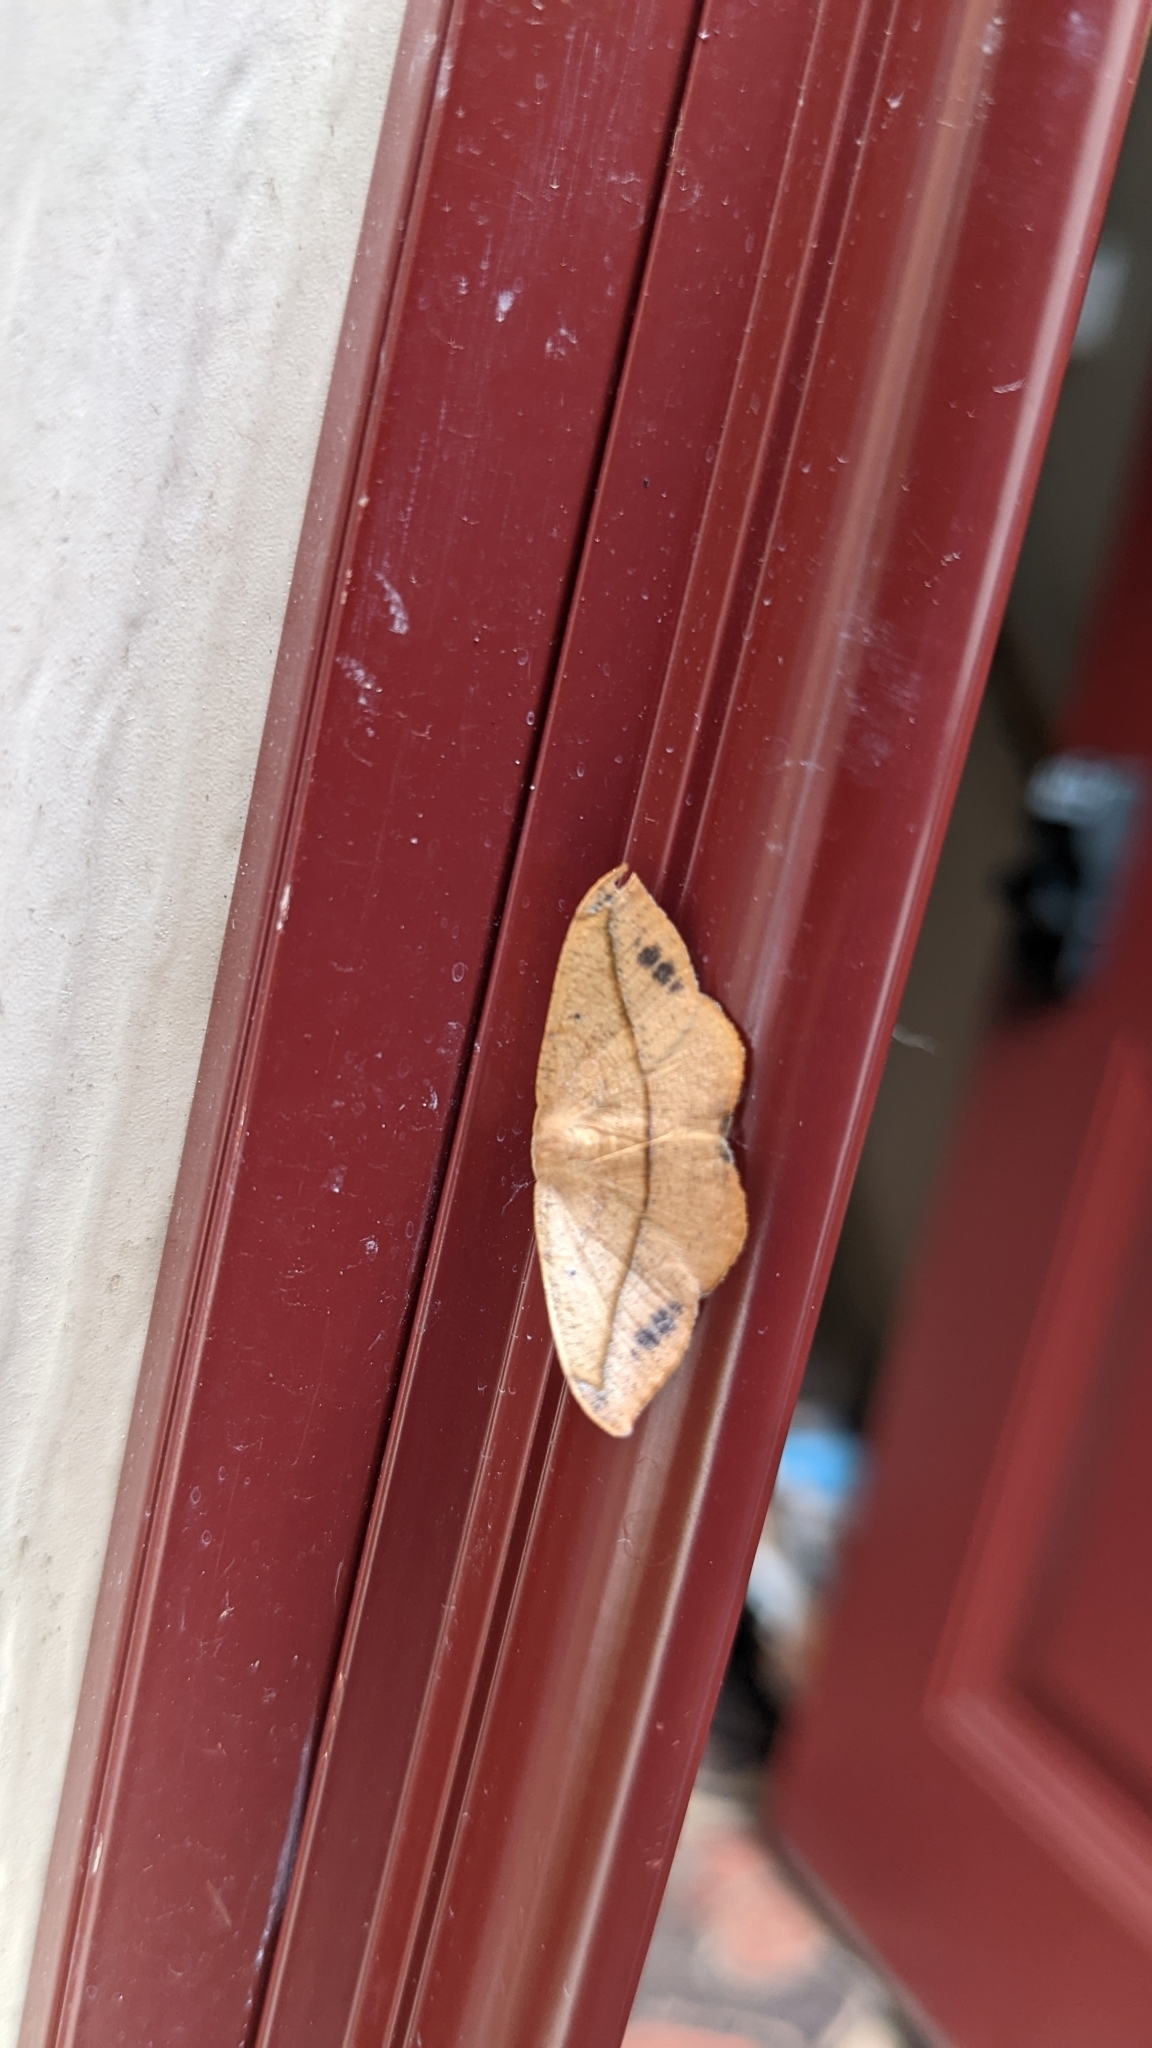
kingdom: Animalia
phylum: Arthropoda
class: Insecta
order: Lepidoptera
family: Geometridae
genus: Patalene
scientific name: Patalene olyzonaria
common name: Juniper geometer moth
